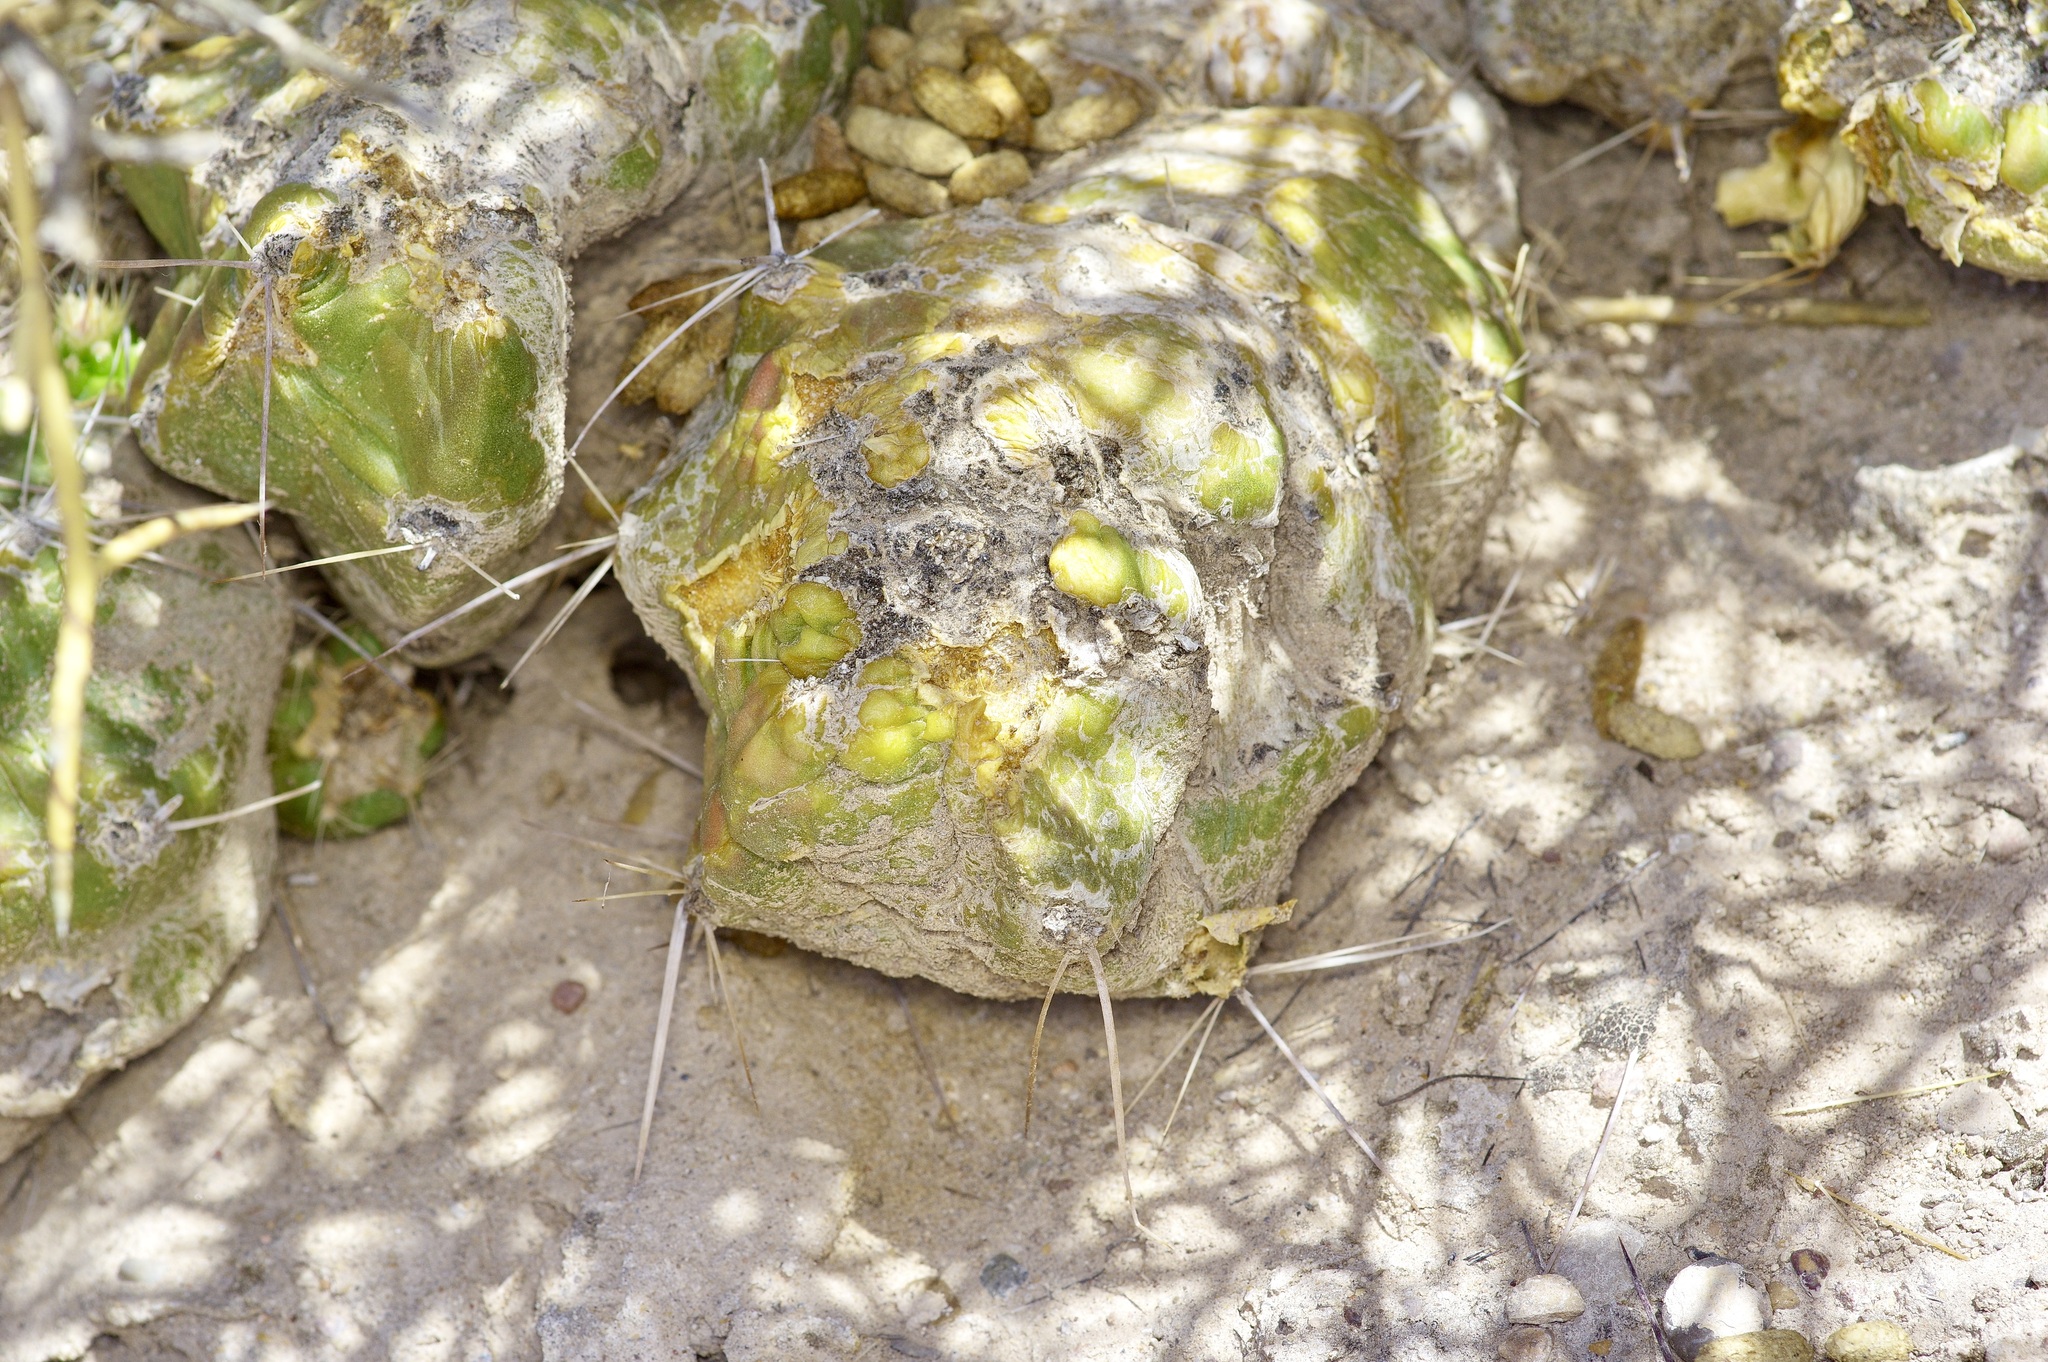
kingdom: Plantae
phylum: Tracheophyta
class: Magnoliopsida
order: Caryophyllales
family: Cactaceae
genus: Echinocereus
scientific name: Echinocereus stramineus
